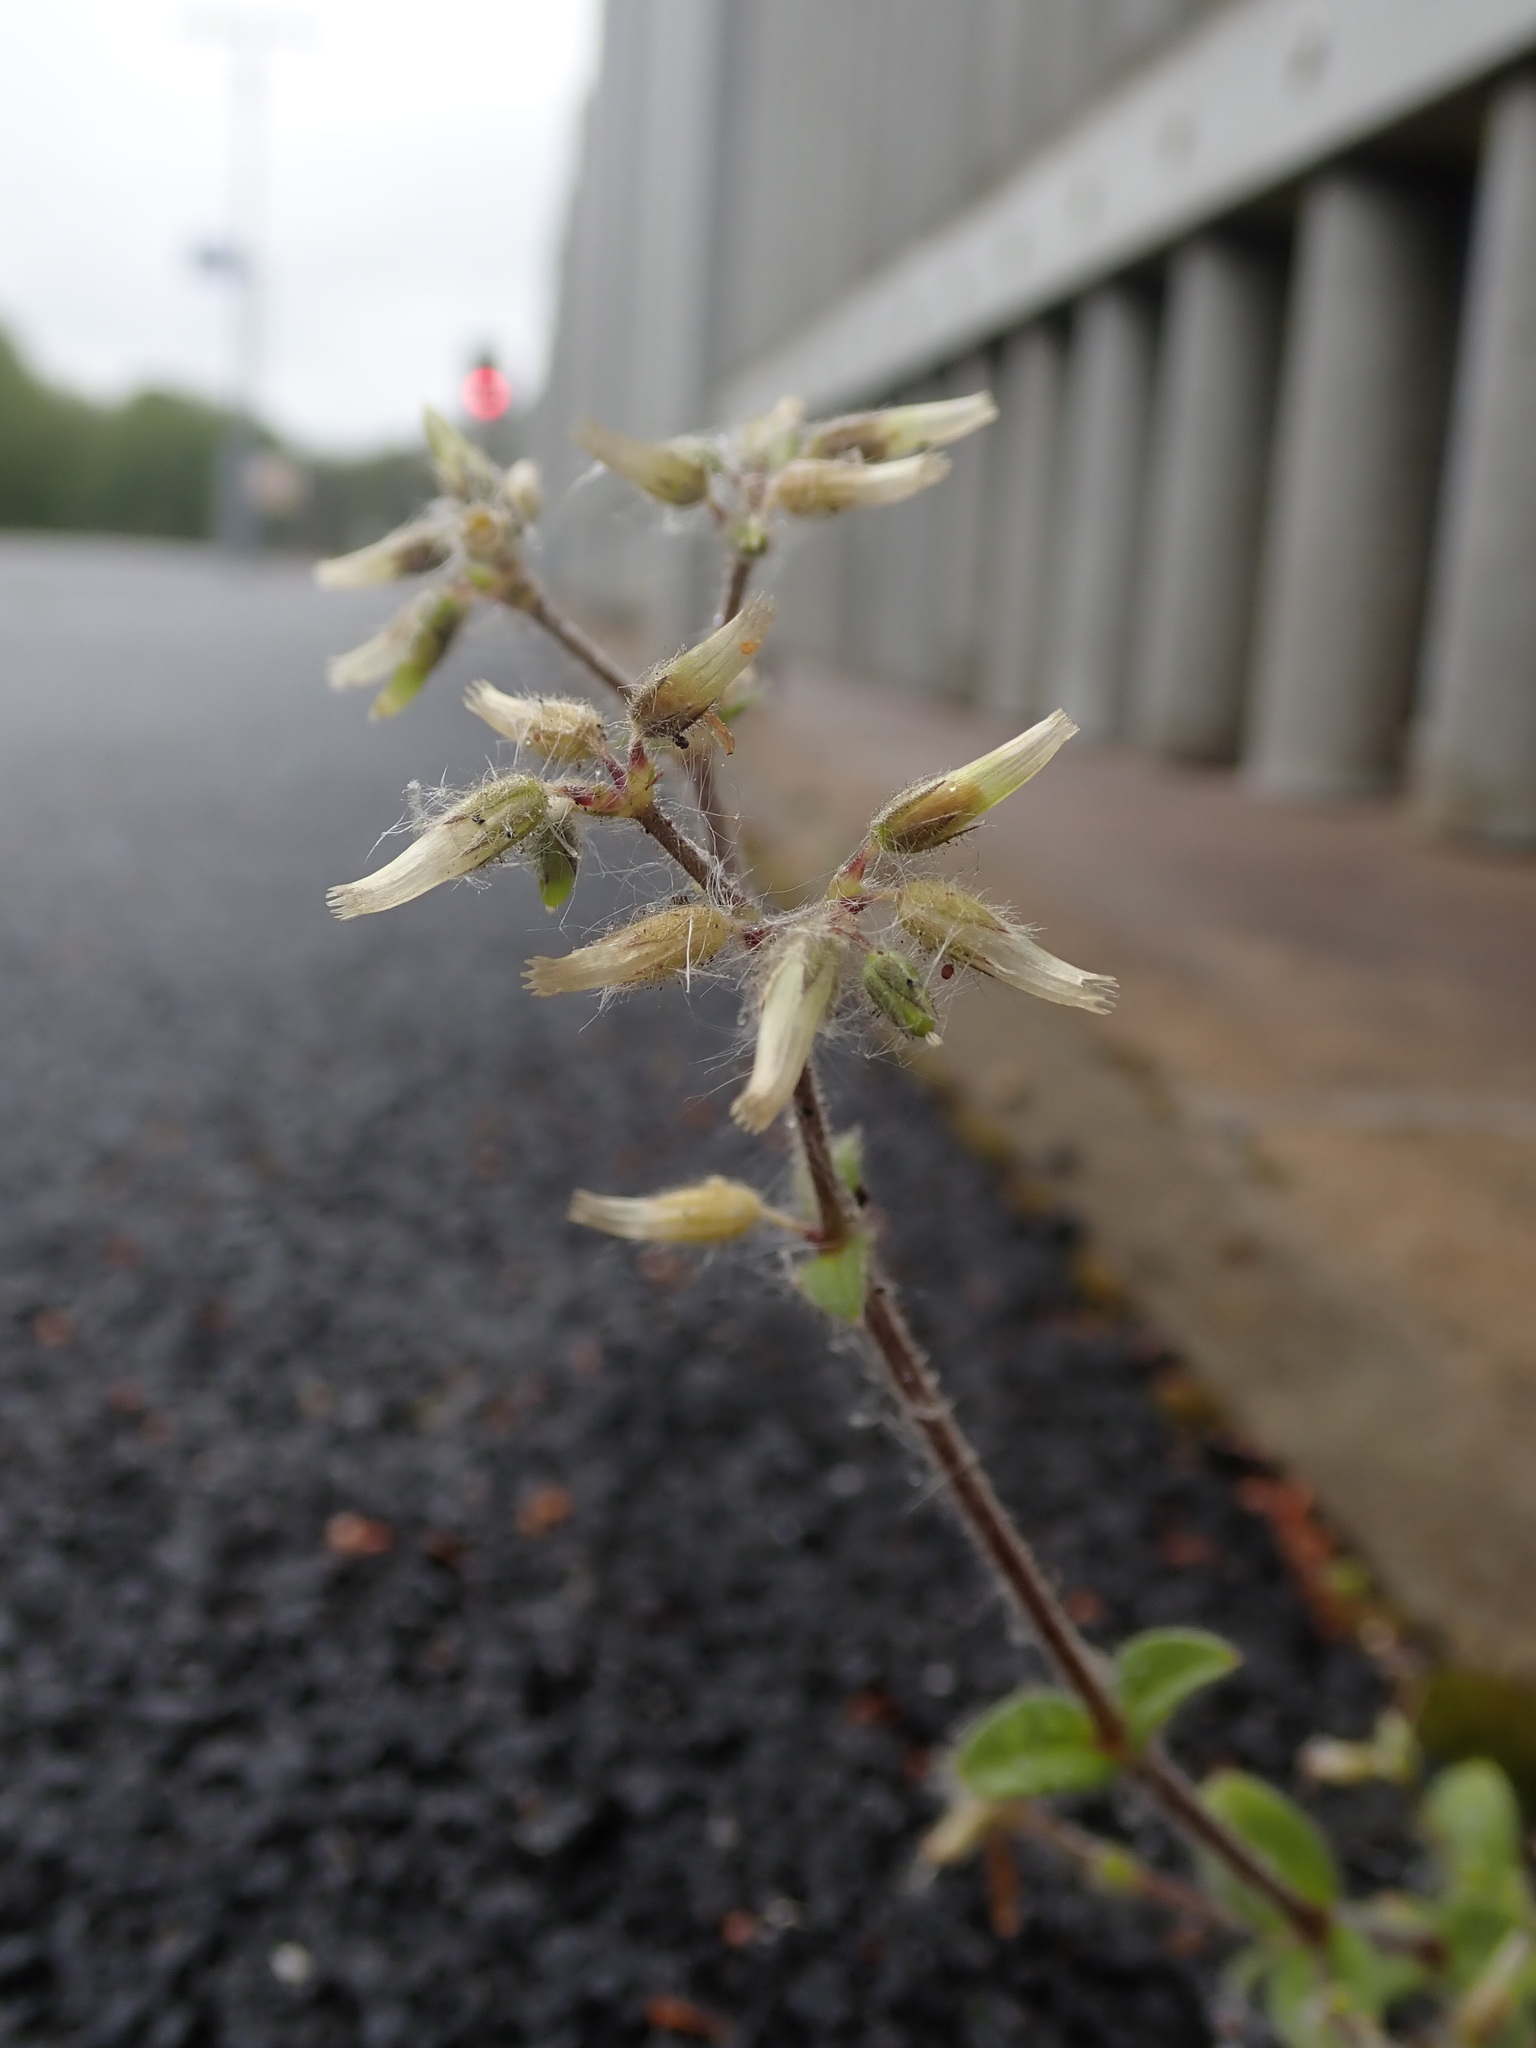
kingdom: Plantae
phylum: Tracheophyta
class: Magnoliopsida
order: Caryophyllales
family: Caryophyllaceae
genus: Cerastium
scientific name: Cerastium glomeratum
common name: Sticky chickweed
